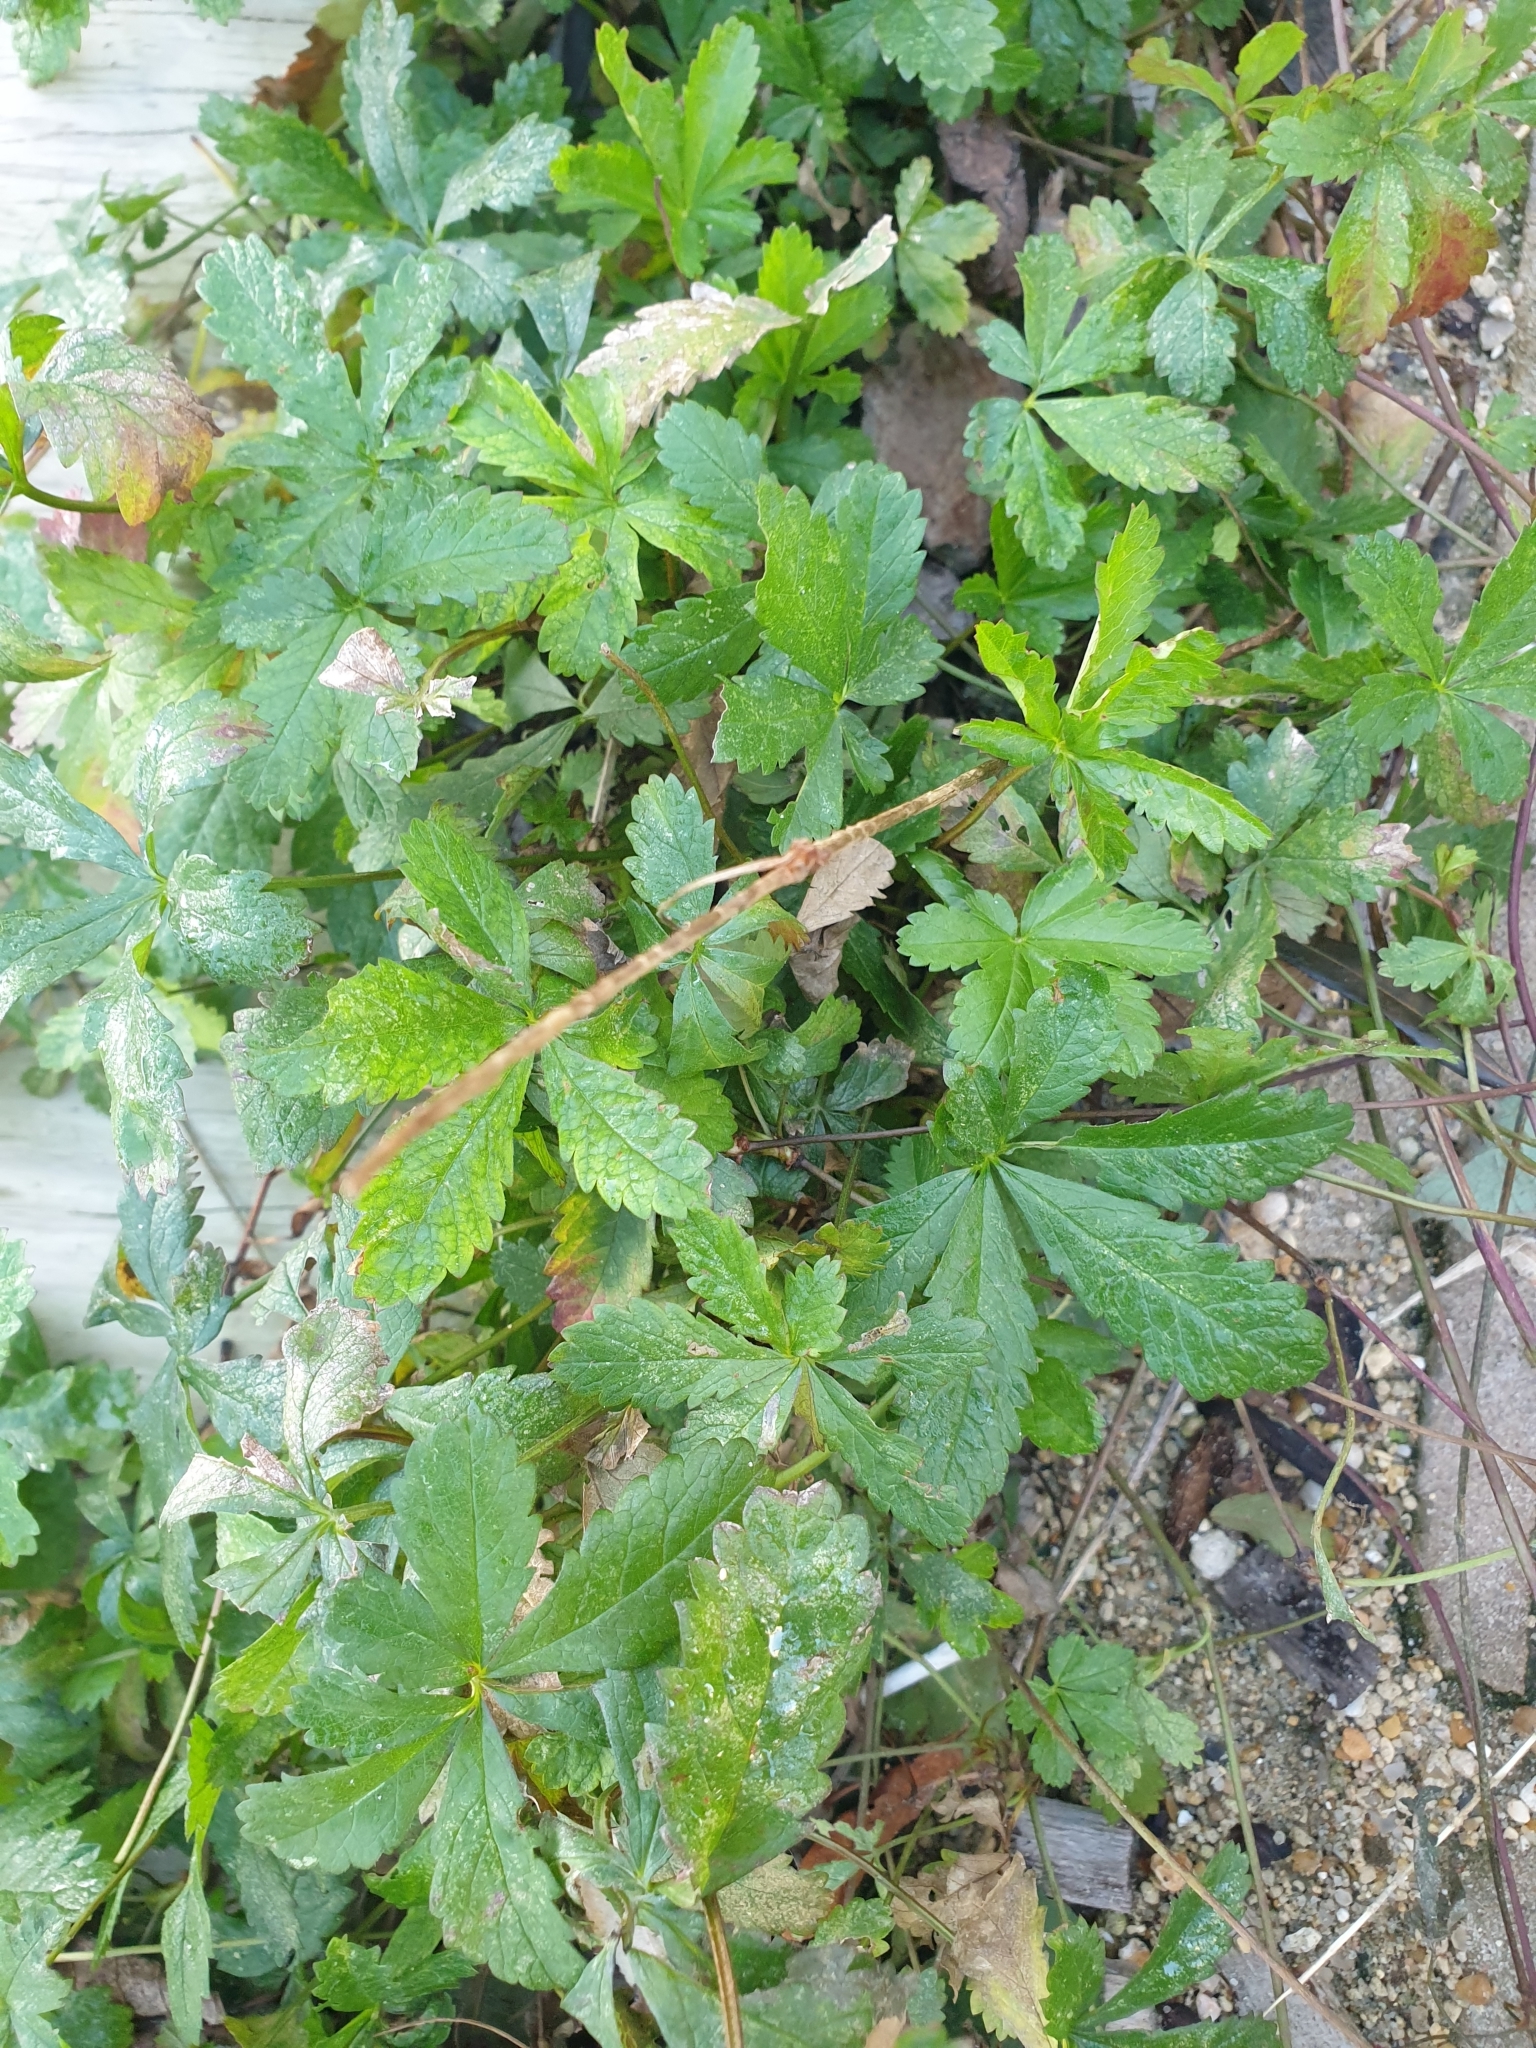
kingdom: Plantae
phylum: Tracheophyta
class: Magnoliopsida
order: Rosales
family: Rosaceae
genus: Potentilla
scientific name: Potentilla reptans
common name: Creeping cinquefoil
